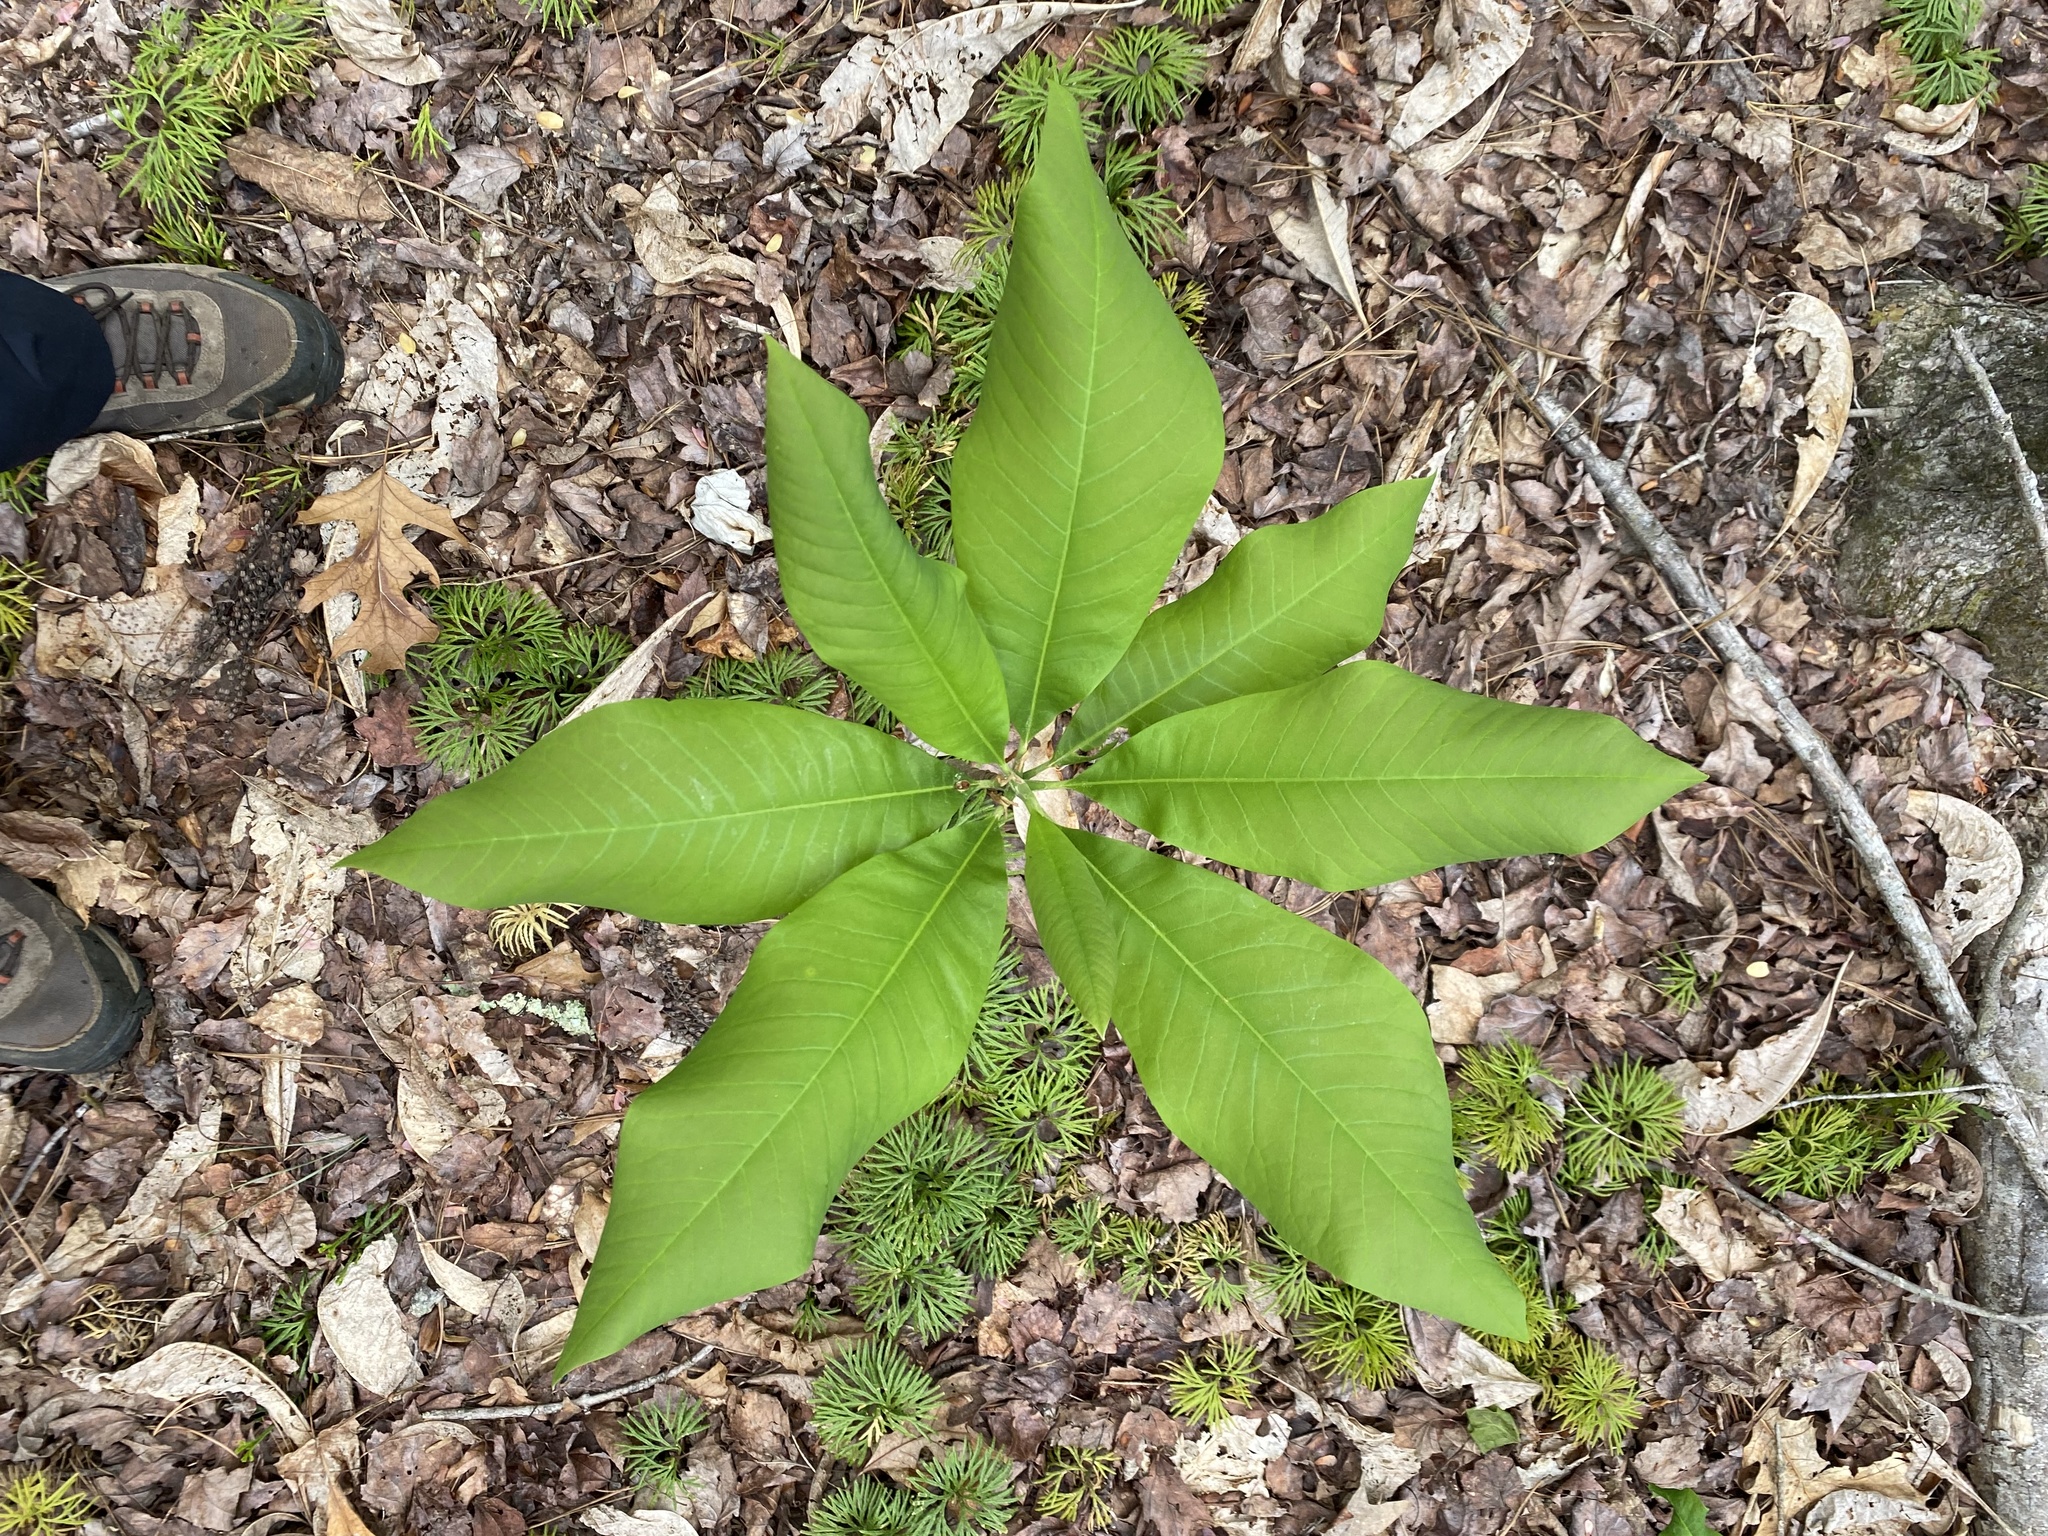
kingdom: Plantae
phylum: Tracheophyta
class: Magnoliopsida
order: Magnoliales
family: Magnoliaceae
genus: Magnolia
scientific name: Magnolia tripetala
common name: Umbrella magnolia
